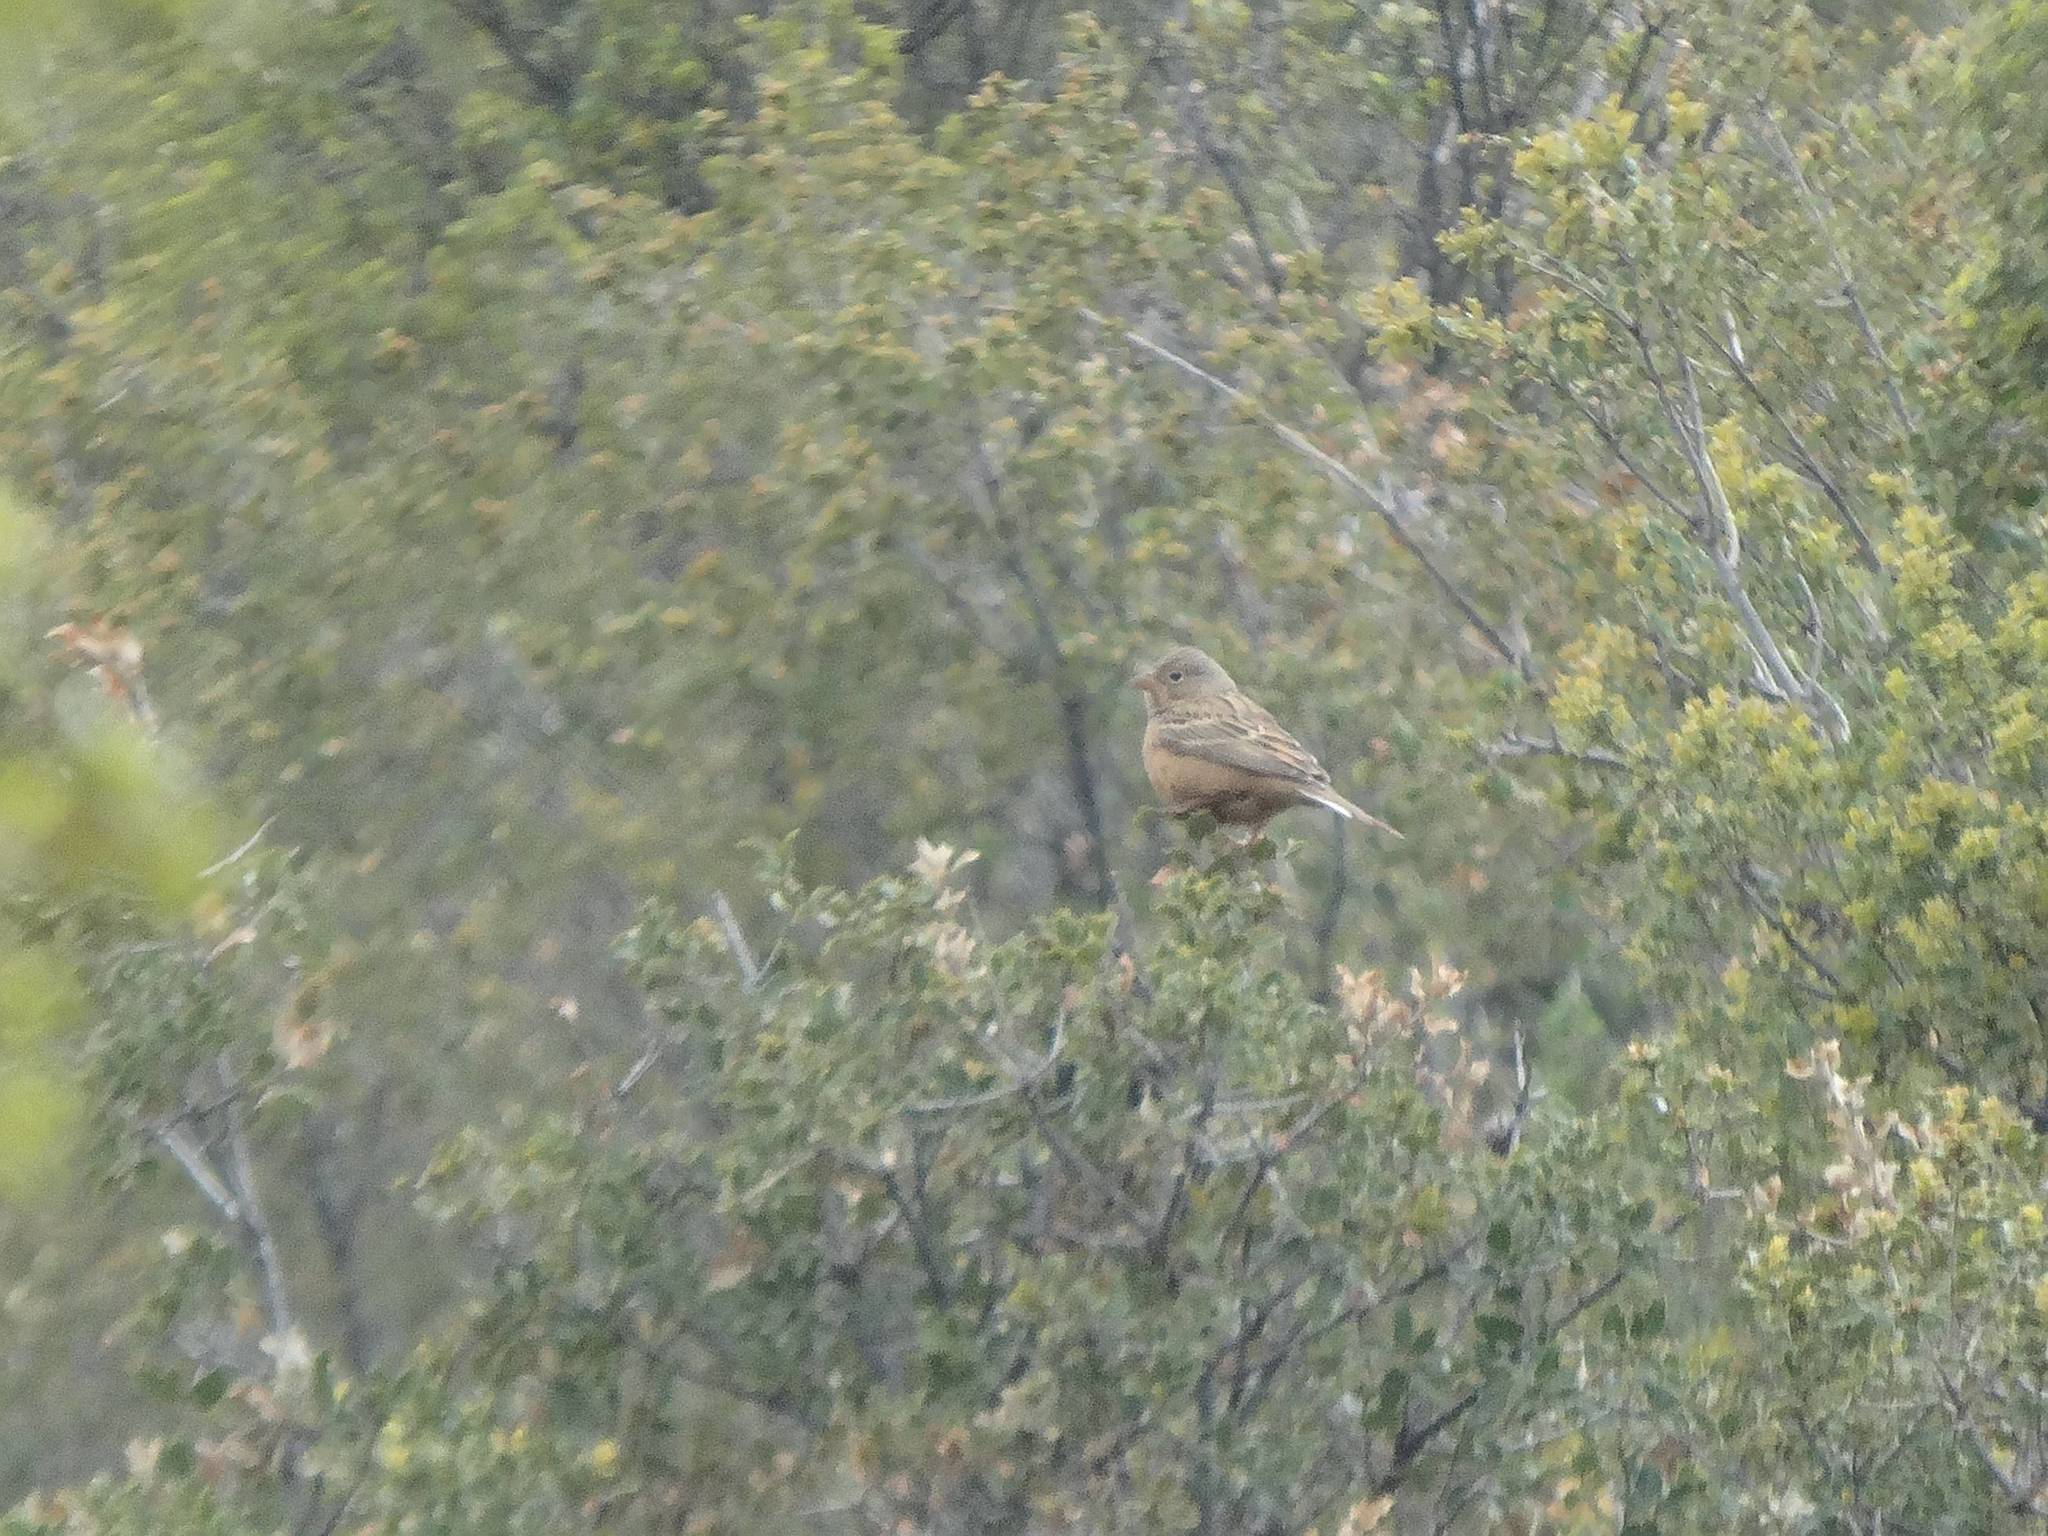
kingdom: Animalia
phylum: Chordata
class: Aves
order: Passeriformes
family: Emberizidae
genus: Emberiza
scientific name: Emberiza caesia
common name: Cretzschmar's bunting
